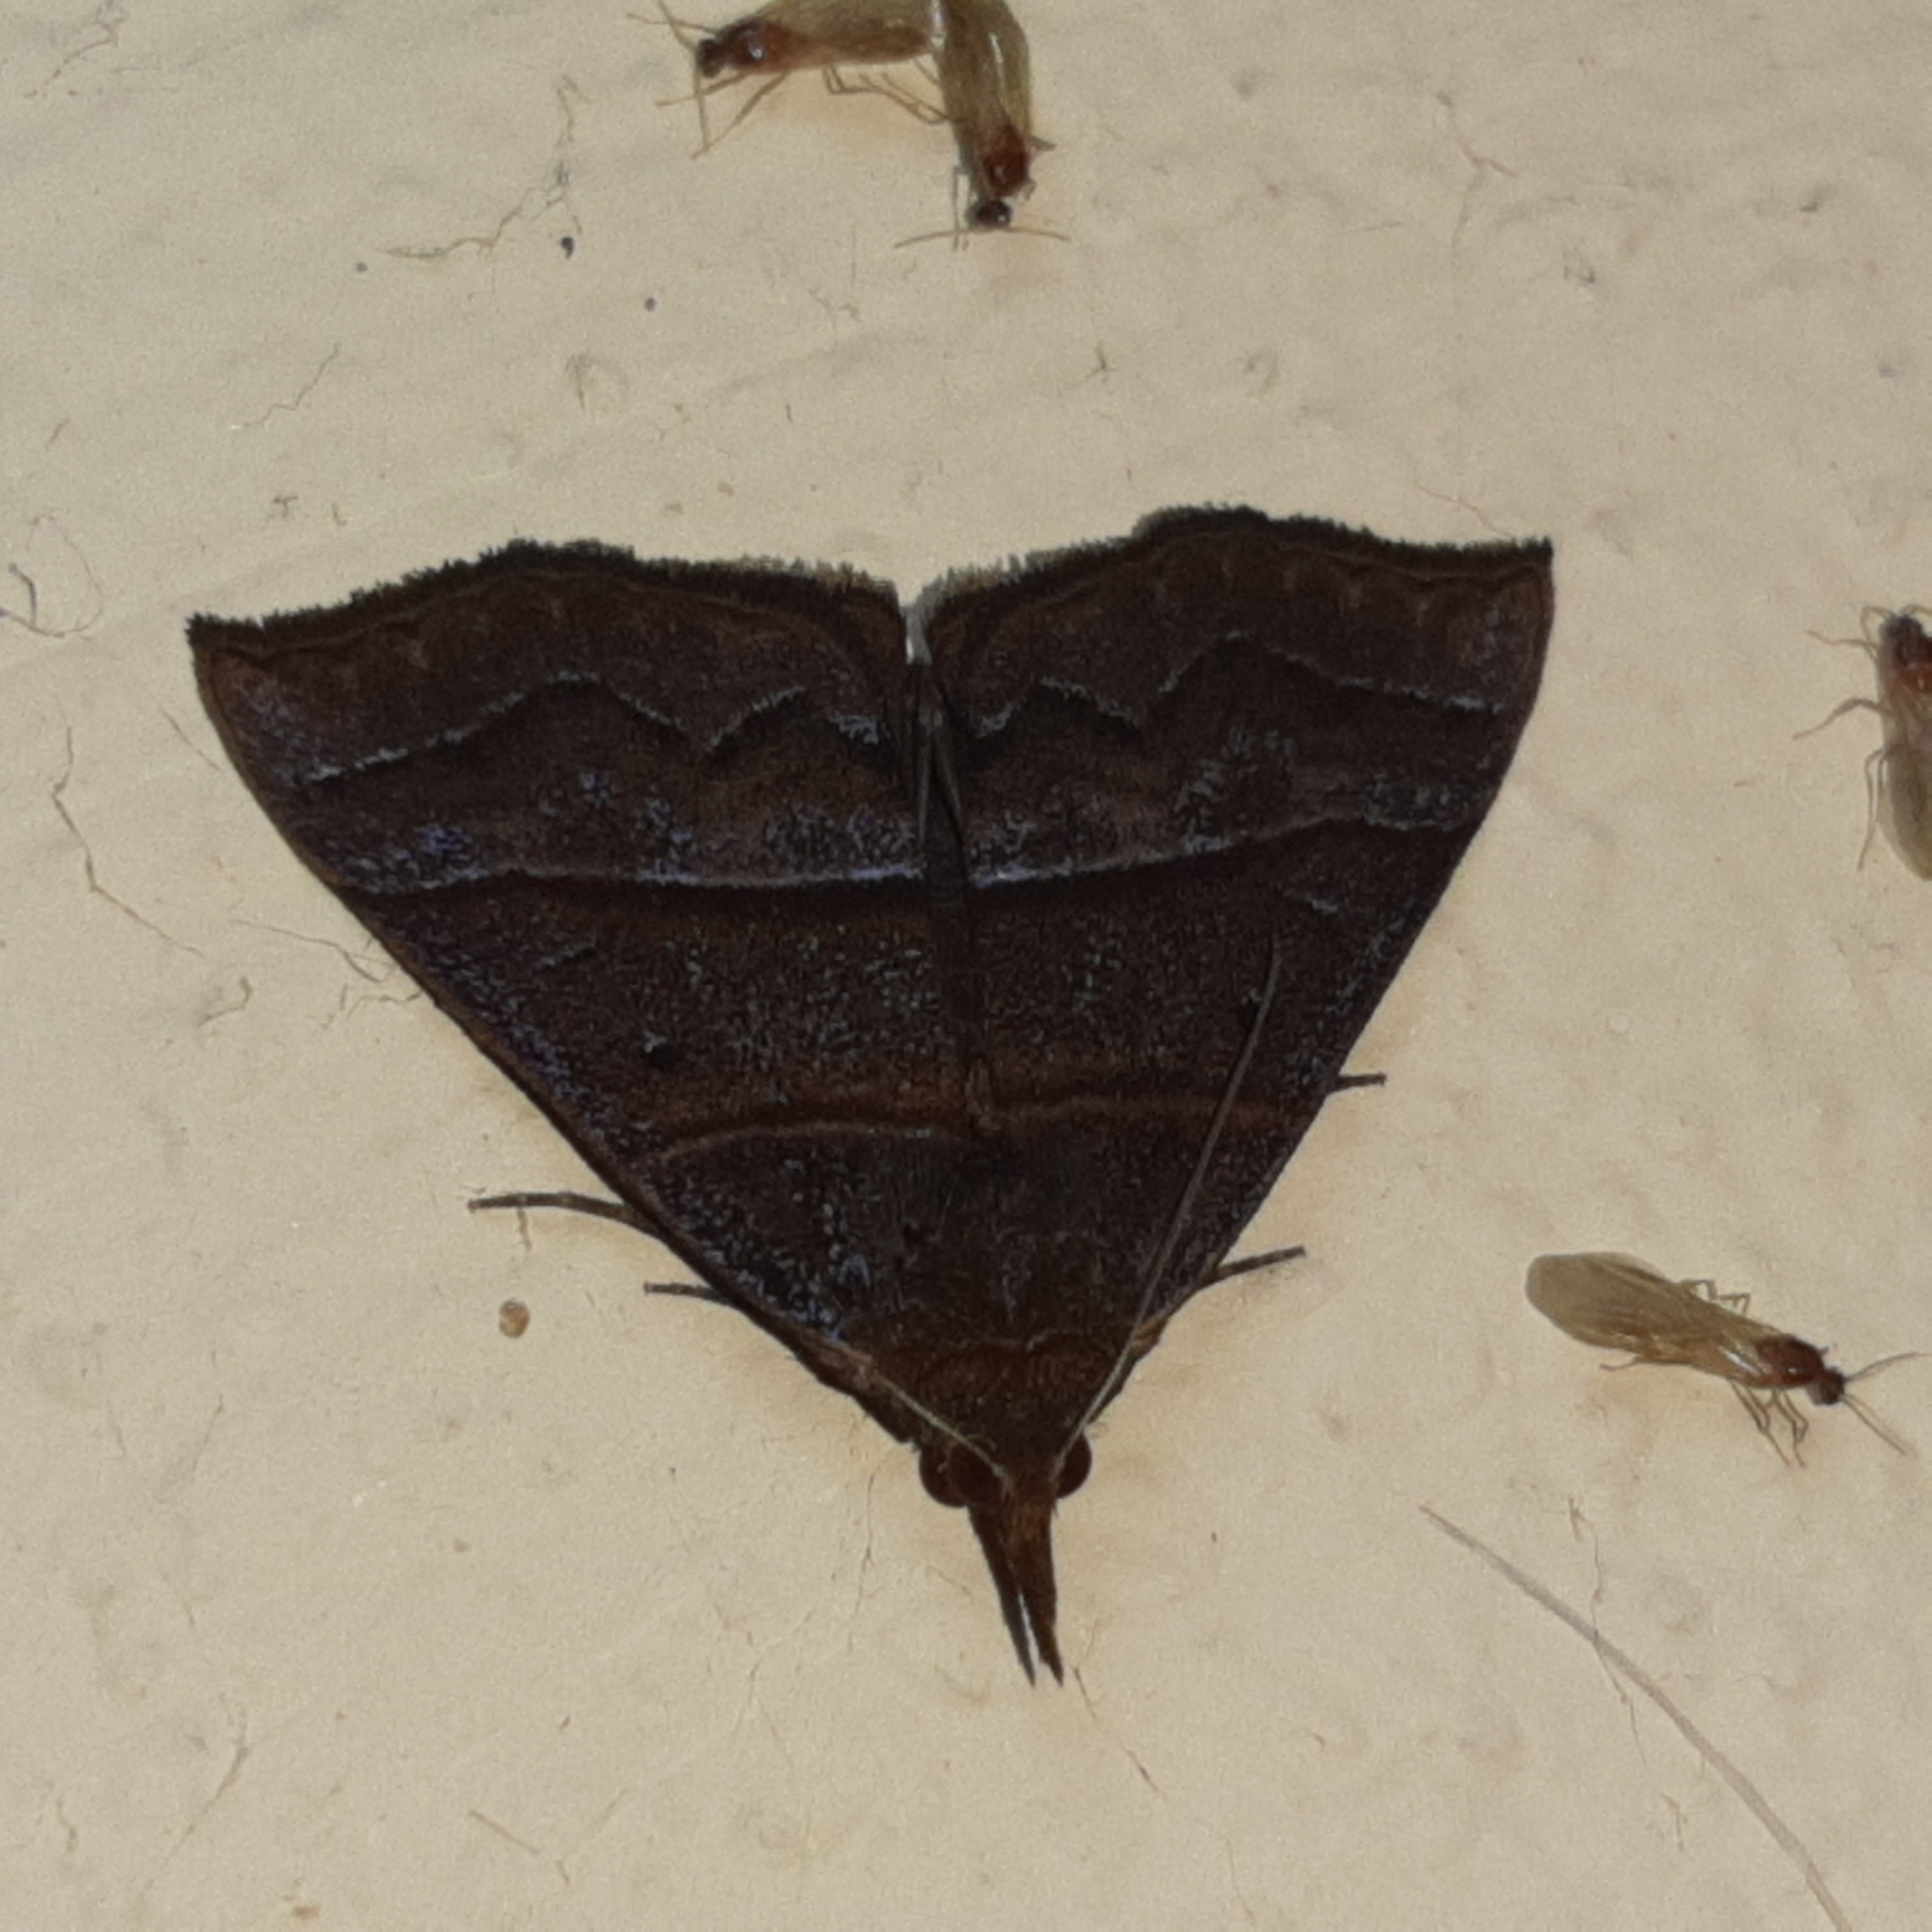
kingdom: Animalia
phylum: Arthropoda
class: Insecta
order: Lepidoptera
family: Erebidae
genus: Hypena
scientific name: Hypena lollia
